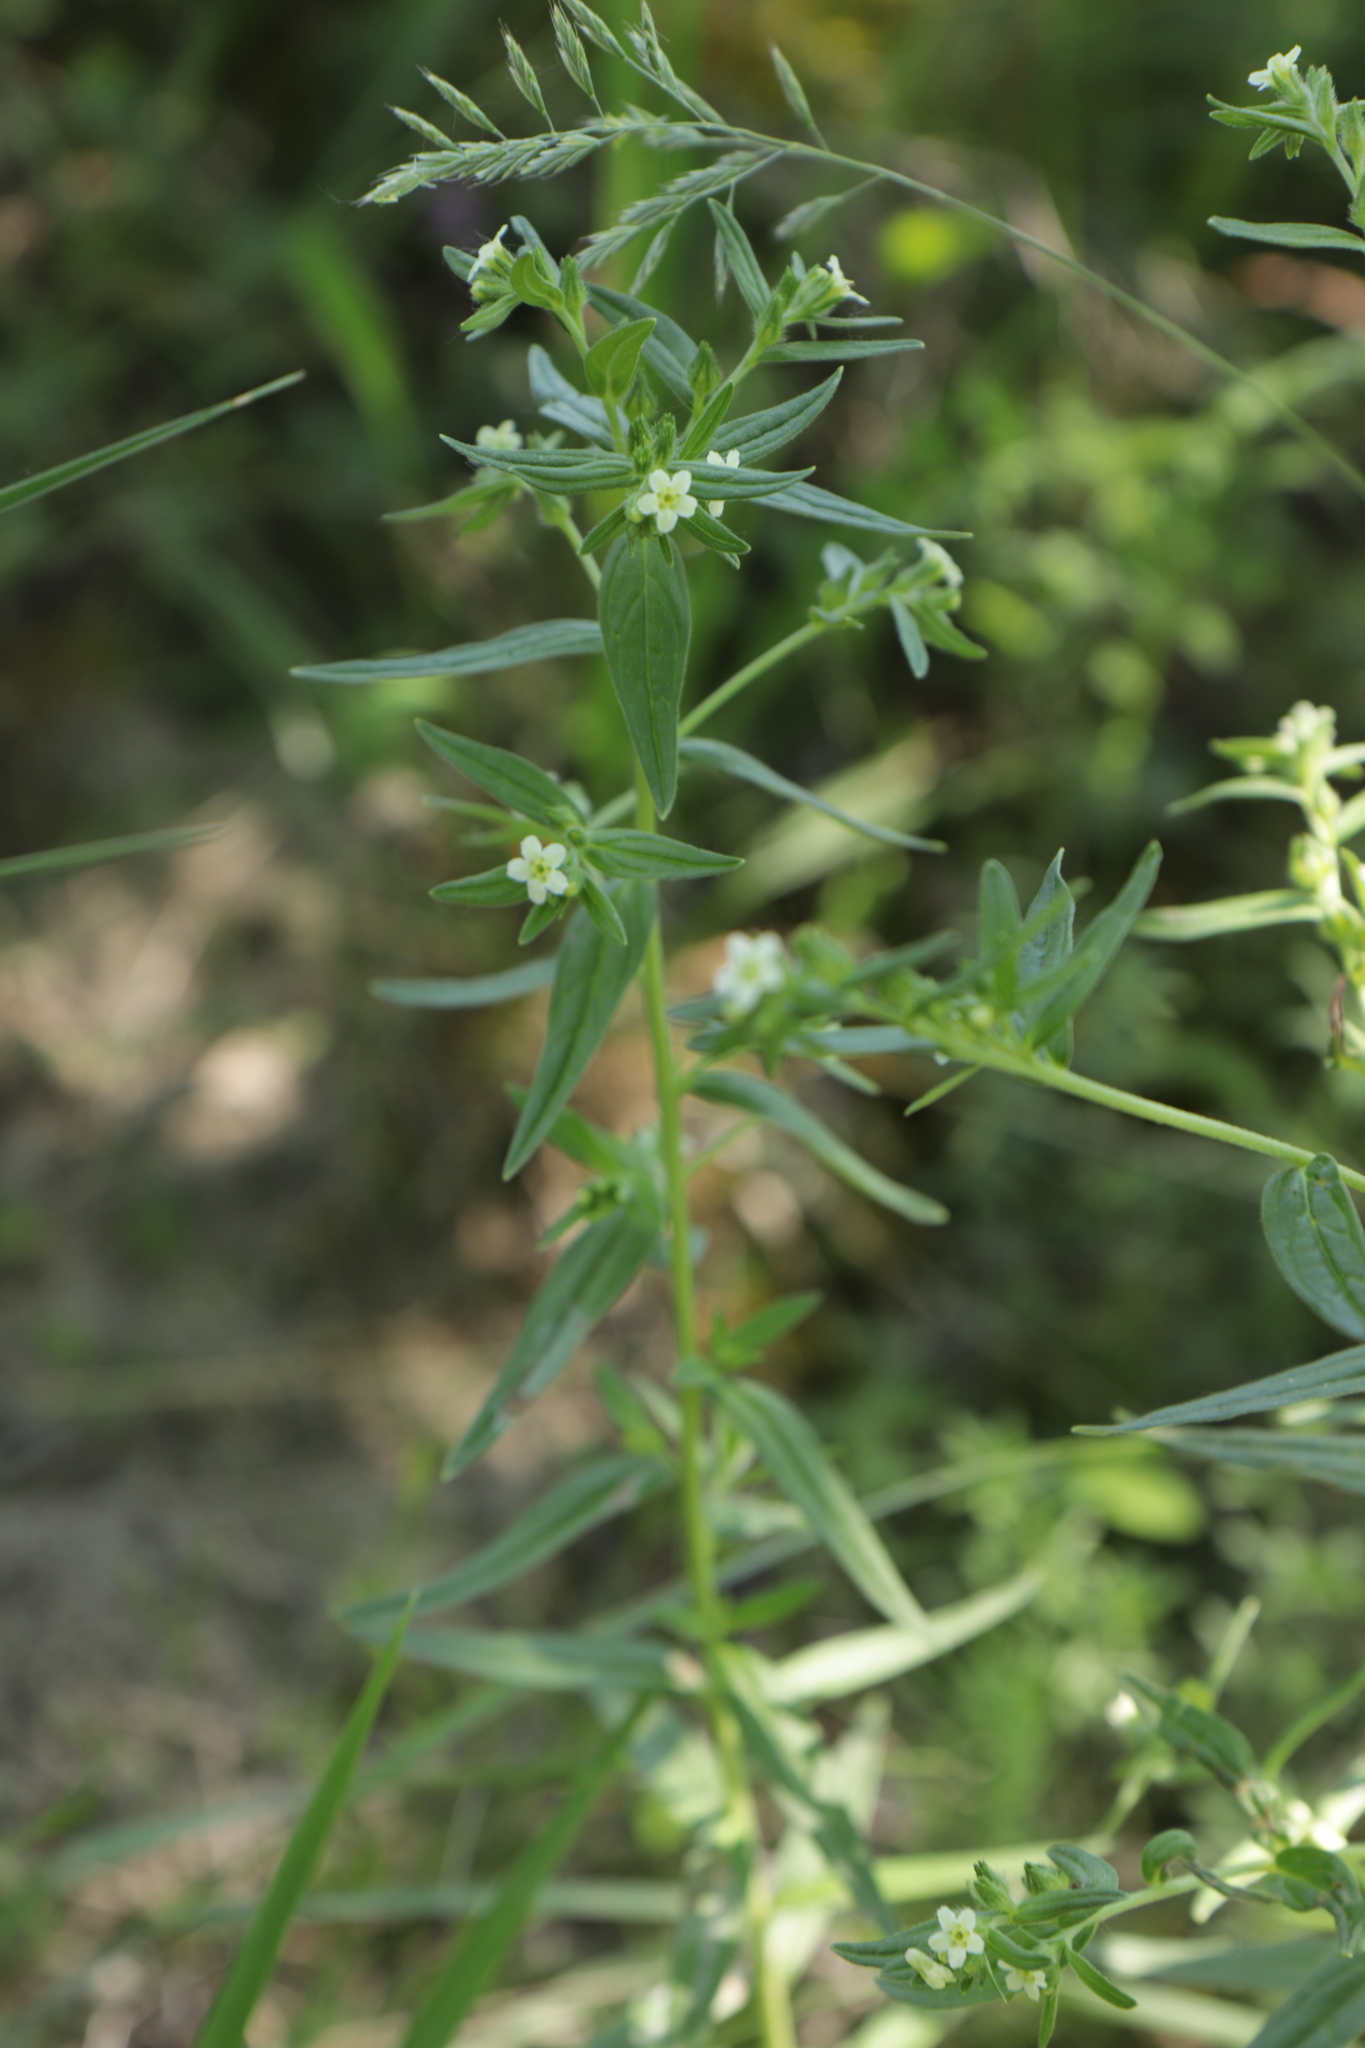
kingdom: Plantae
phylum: Tracheophyta
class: Magnoliopsida
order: Boraginales
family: Boraginaceae
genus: Lithospermum
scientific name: Lithospermum officinale
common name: Common gromwell
